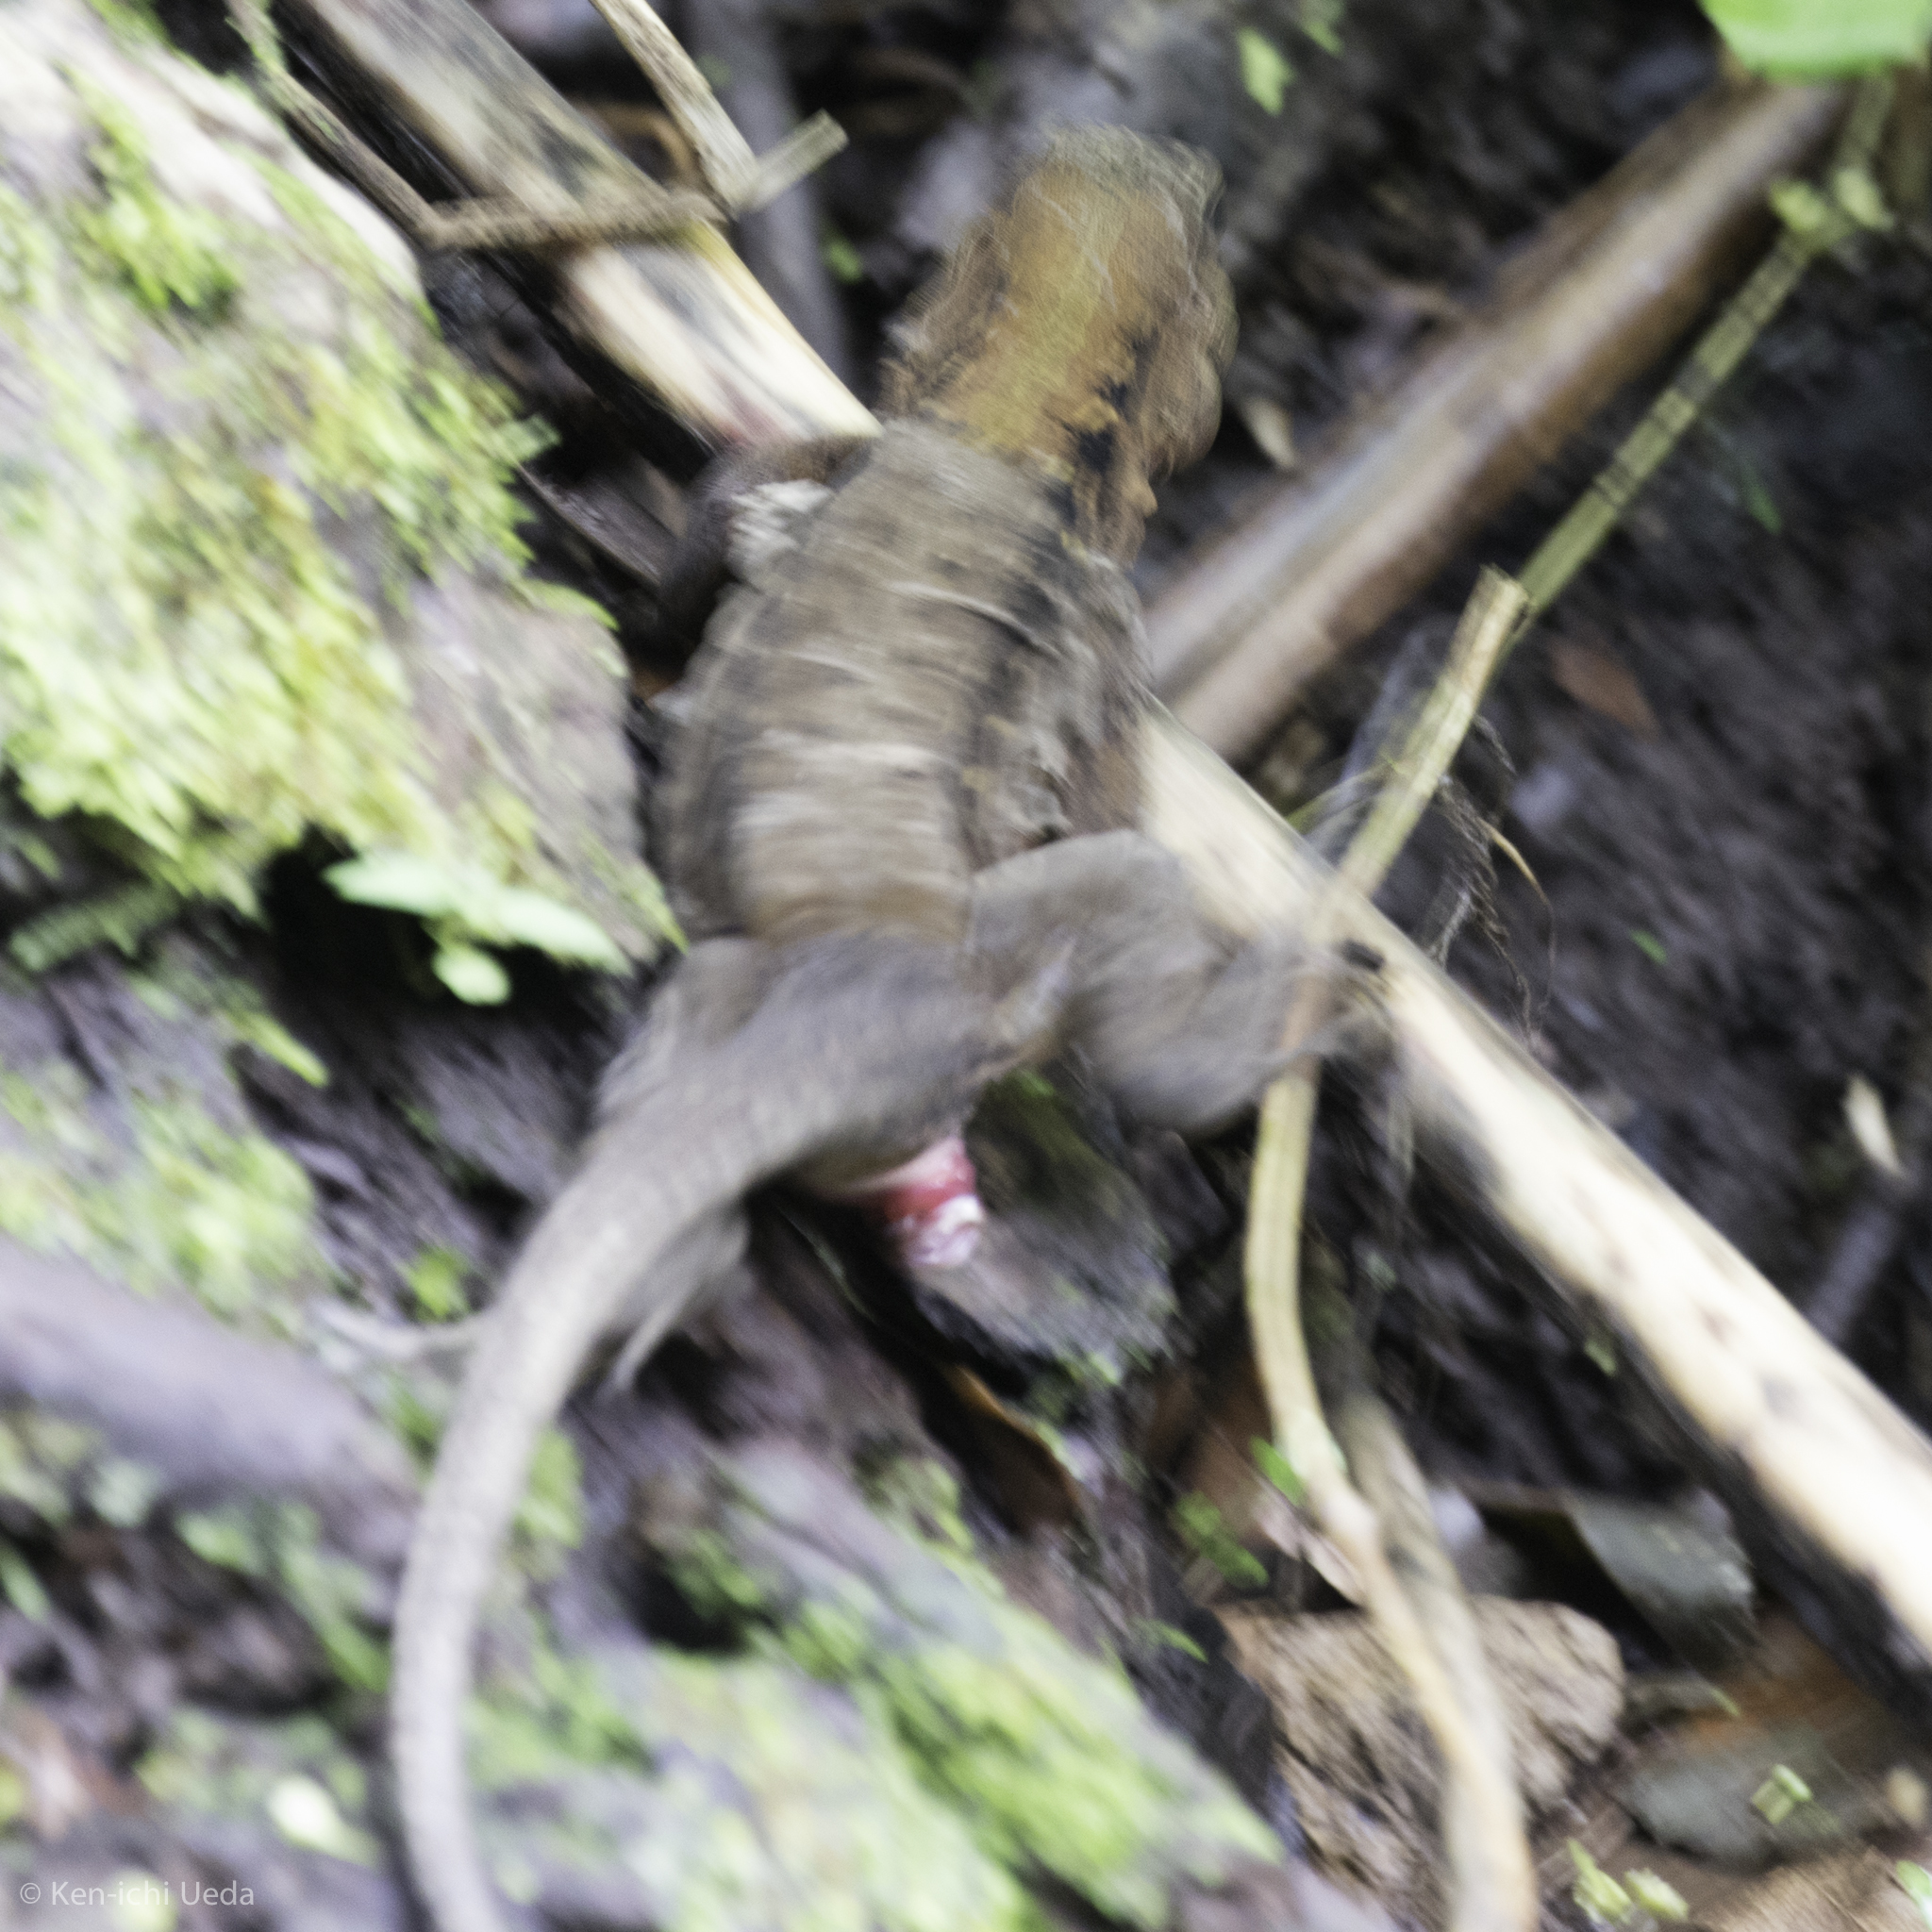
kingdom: Animalia
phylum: Chordata
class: Squamata
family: Teiidae
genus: Holcosus
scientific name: Holcosus festivus
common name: Middle american ameiva
